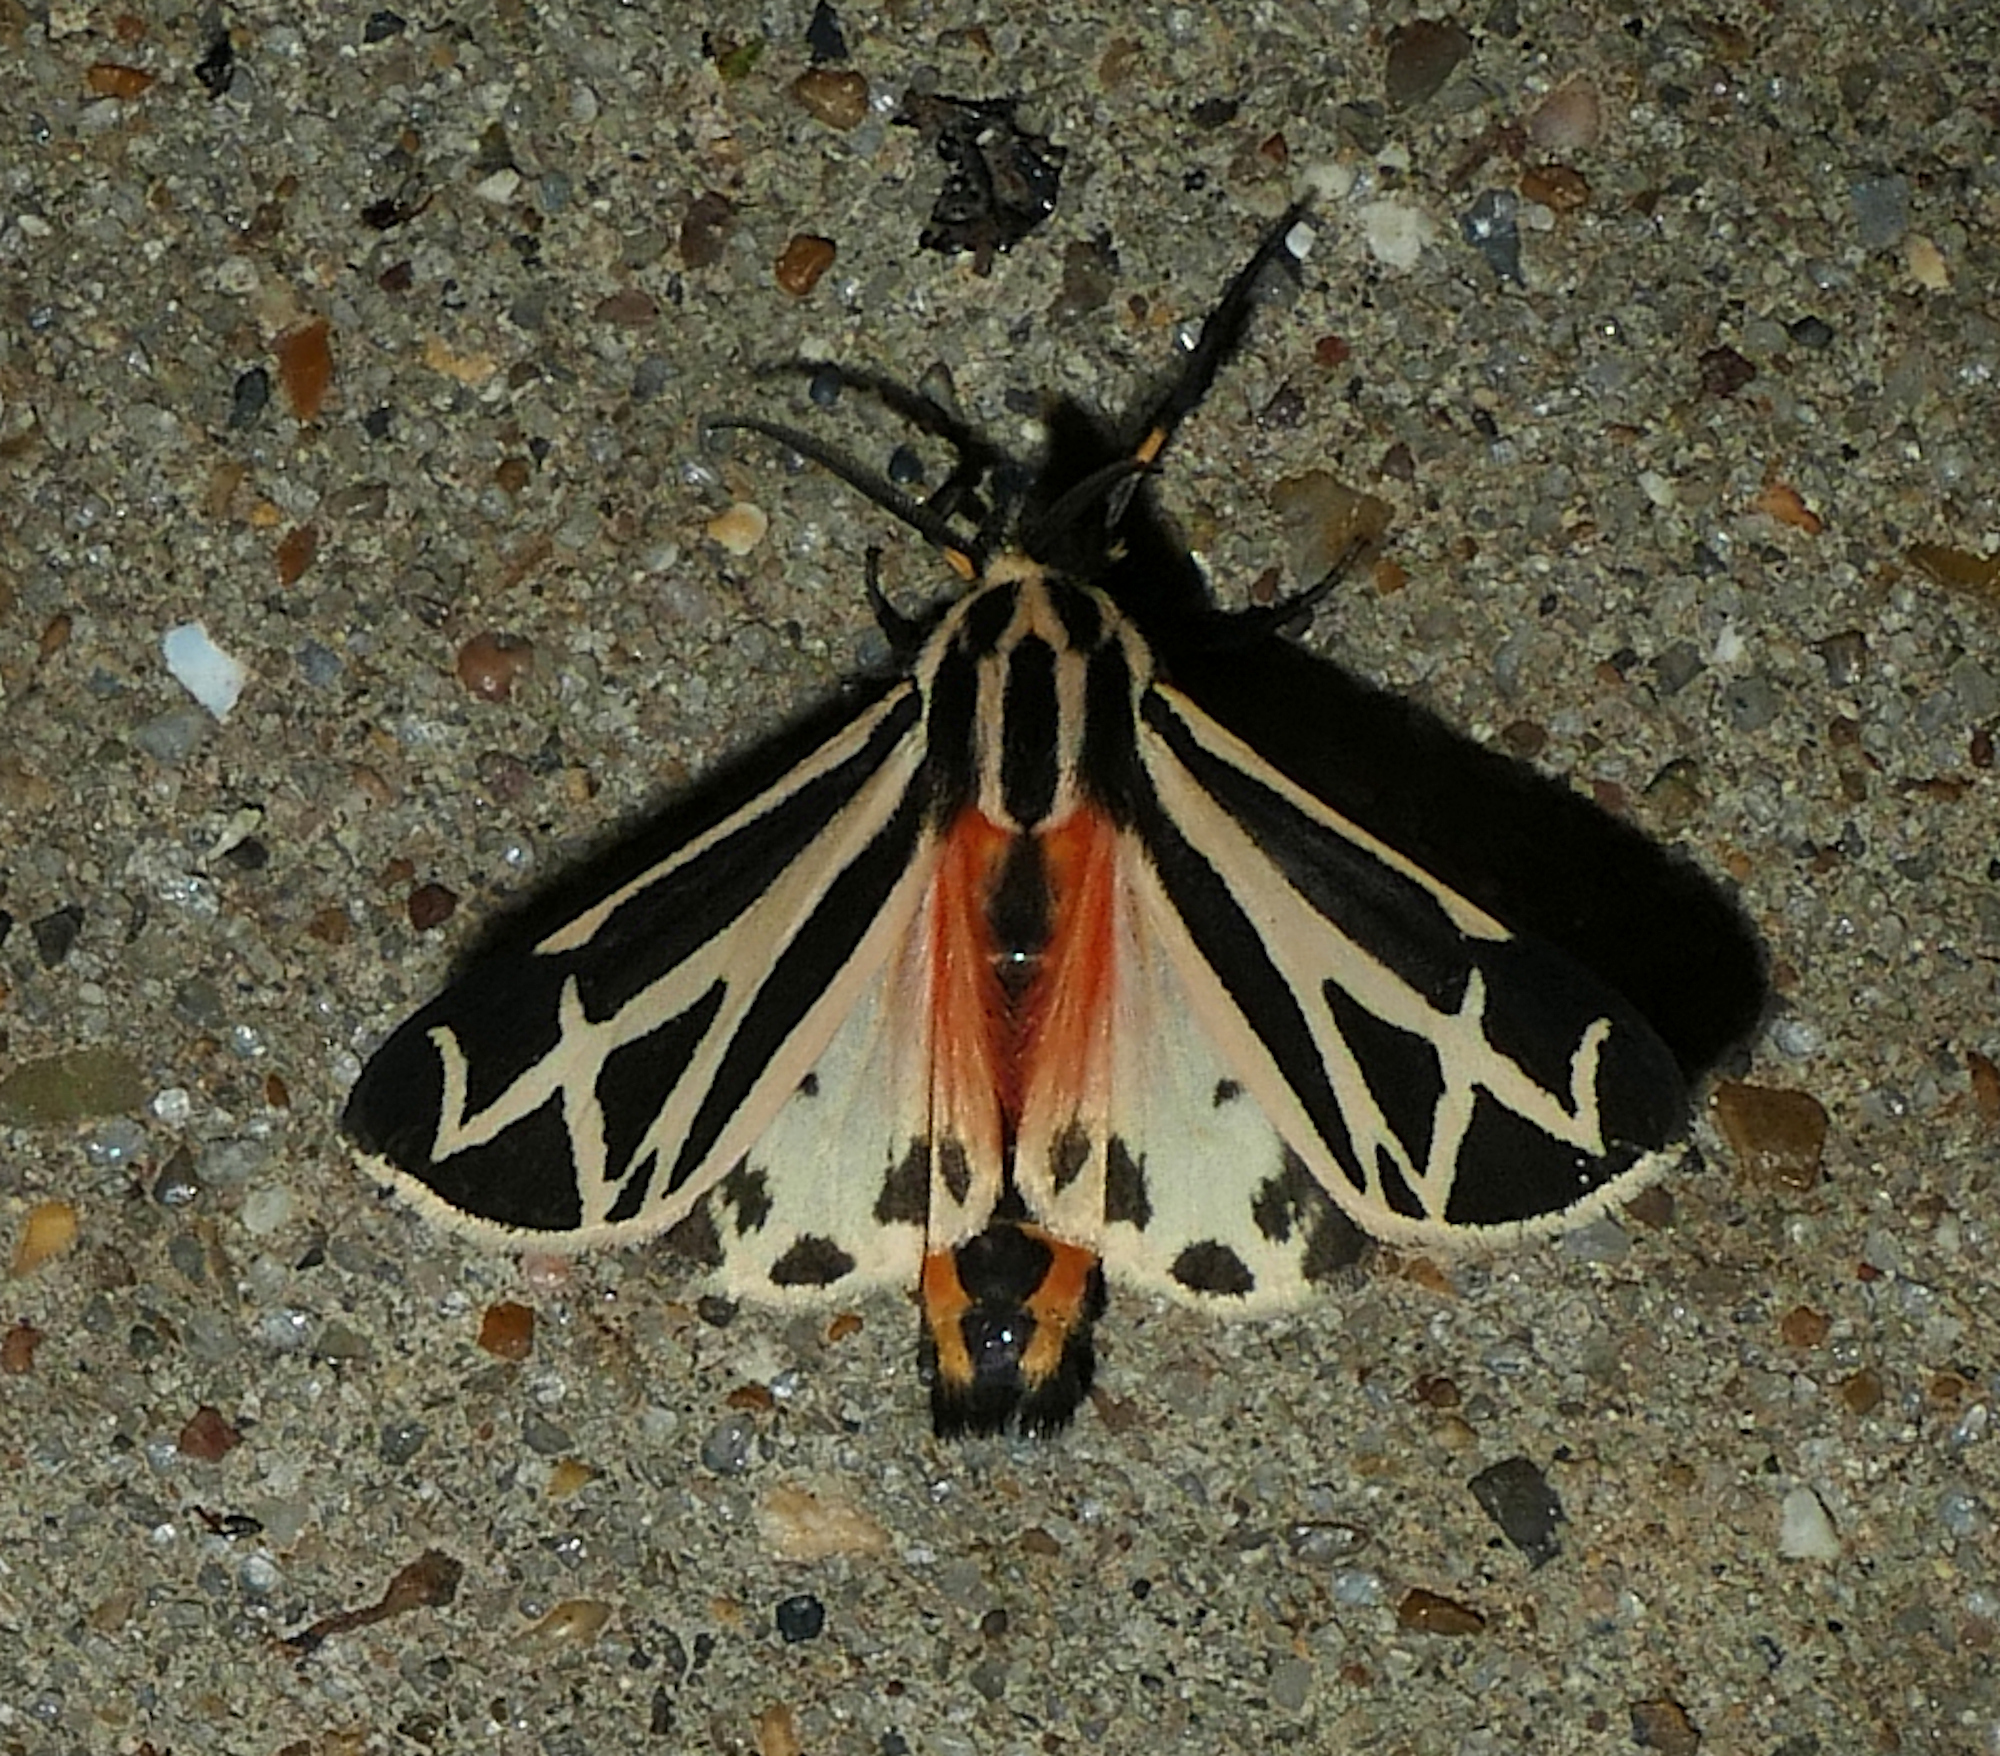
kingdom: Animalia
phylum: Arthropoda
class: Insecta
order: Lepidoptera
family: Erebidae
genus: Apantesis
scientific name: Apantesis phalerata
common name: Harnessed tiger moth
